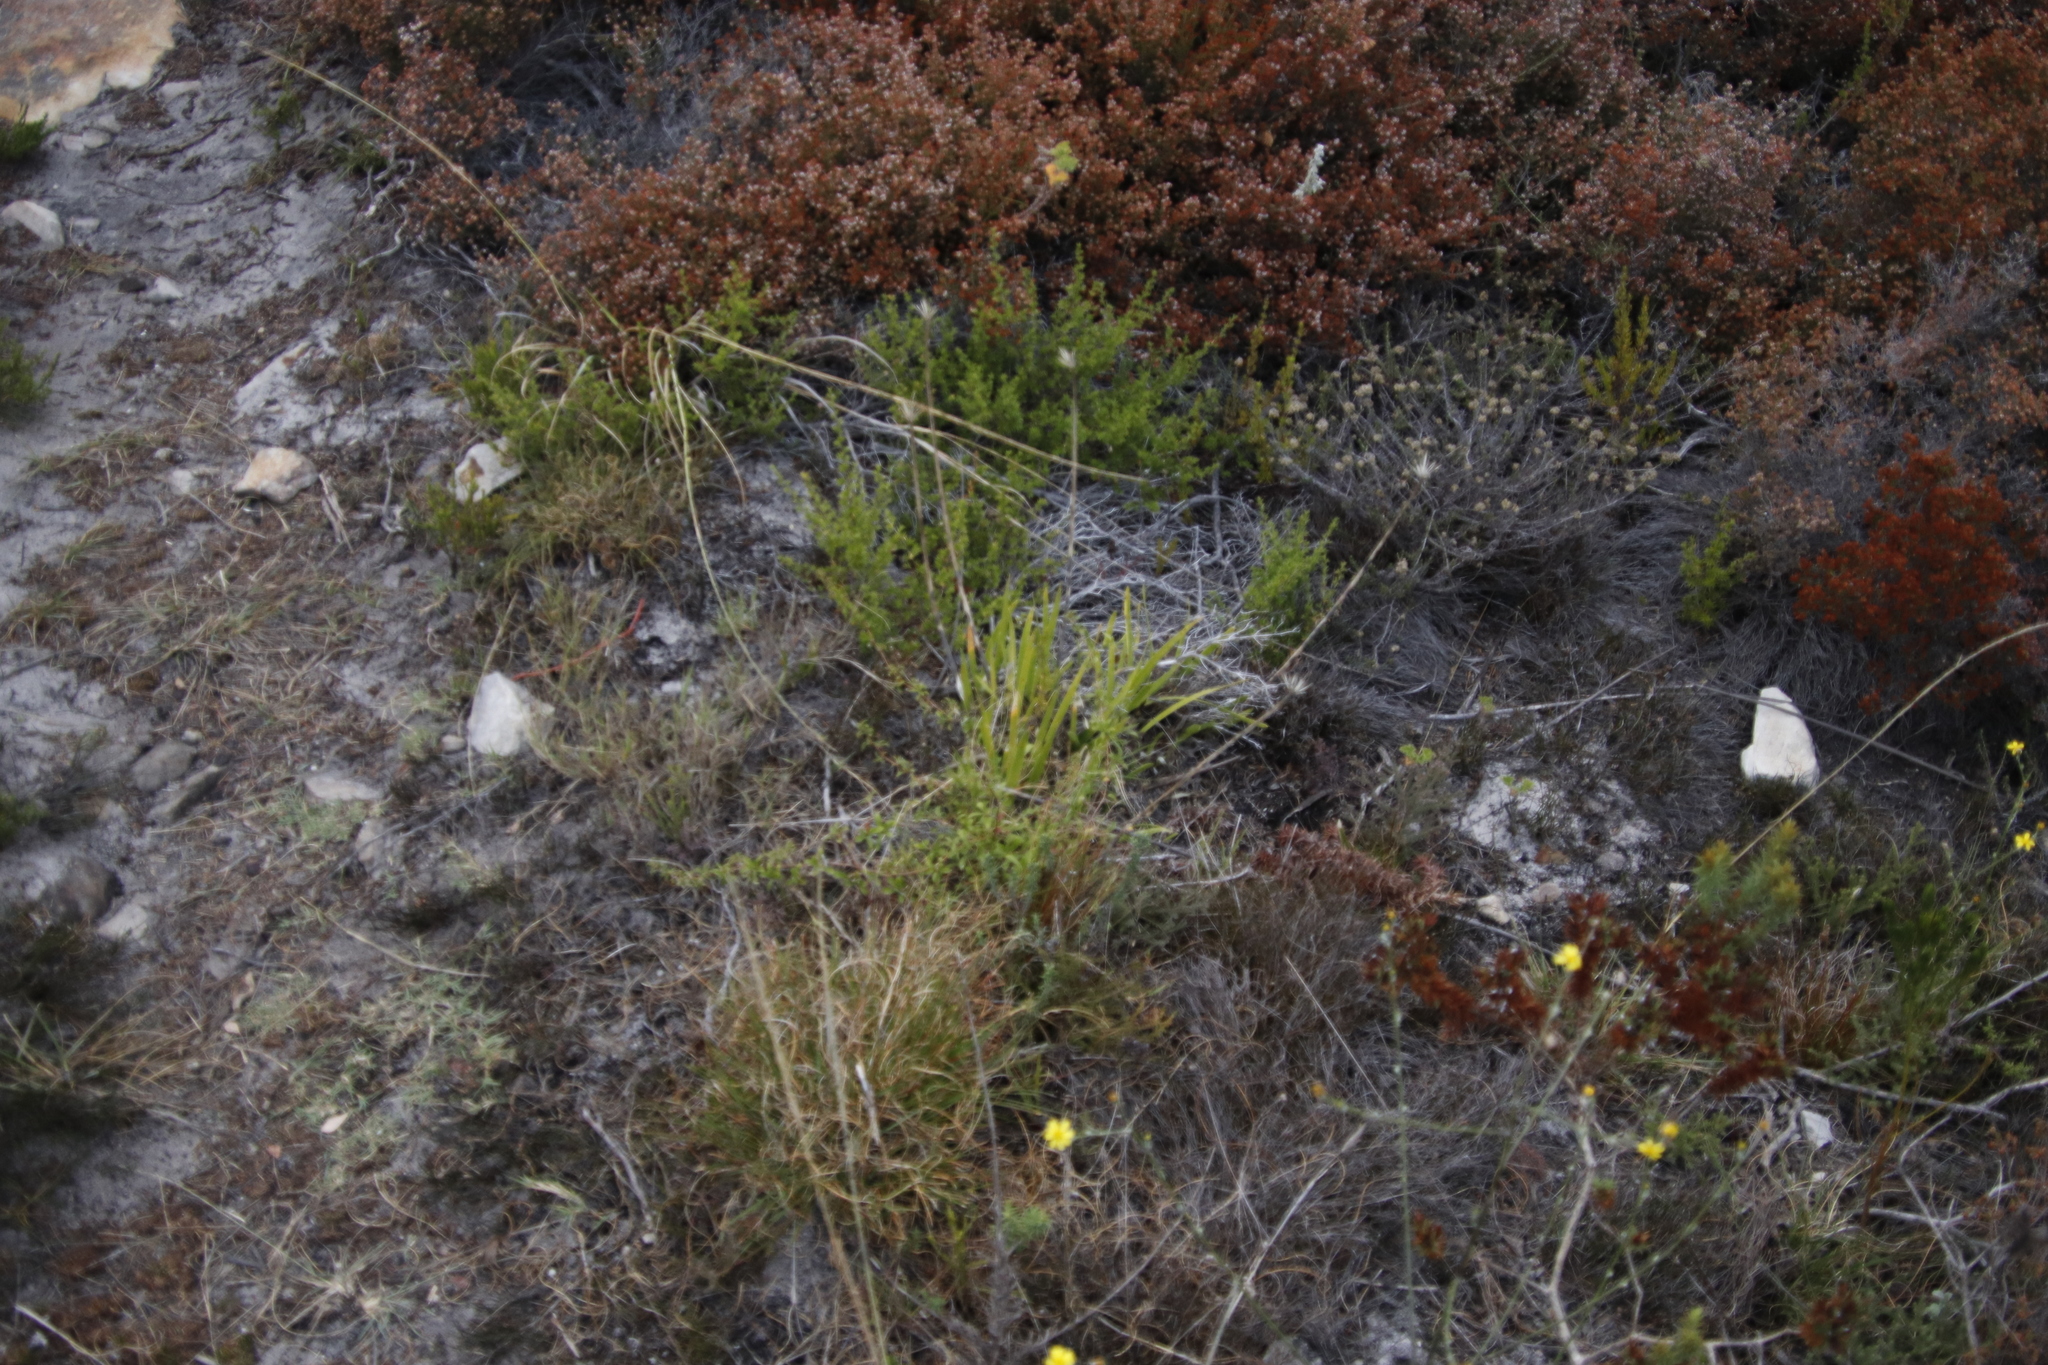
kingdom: Plantae
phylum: Tracheophyta
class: Liliopsida
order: Asparagales
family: Amaryllidaceae
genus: Agapanthus
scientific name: Agapanthus africanus
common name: Lily-of-the-nile
